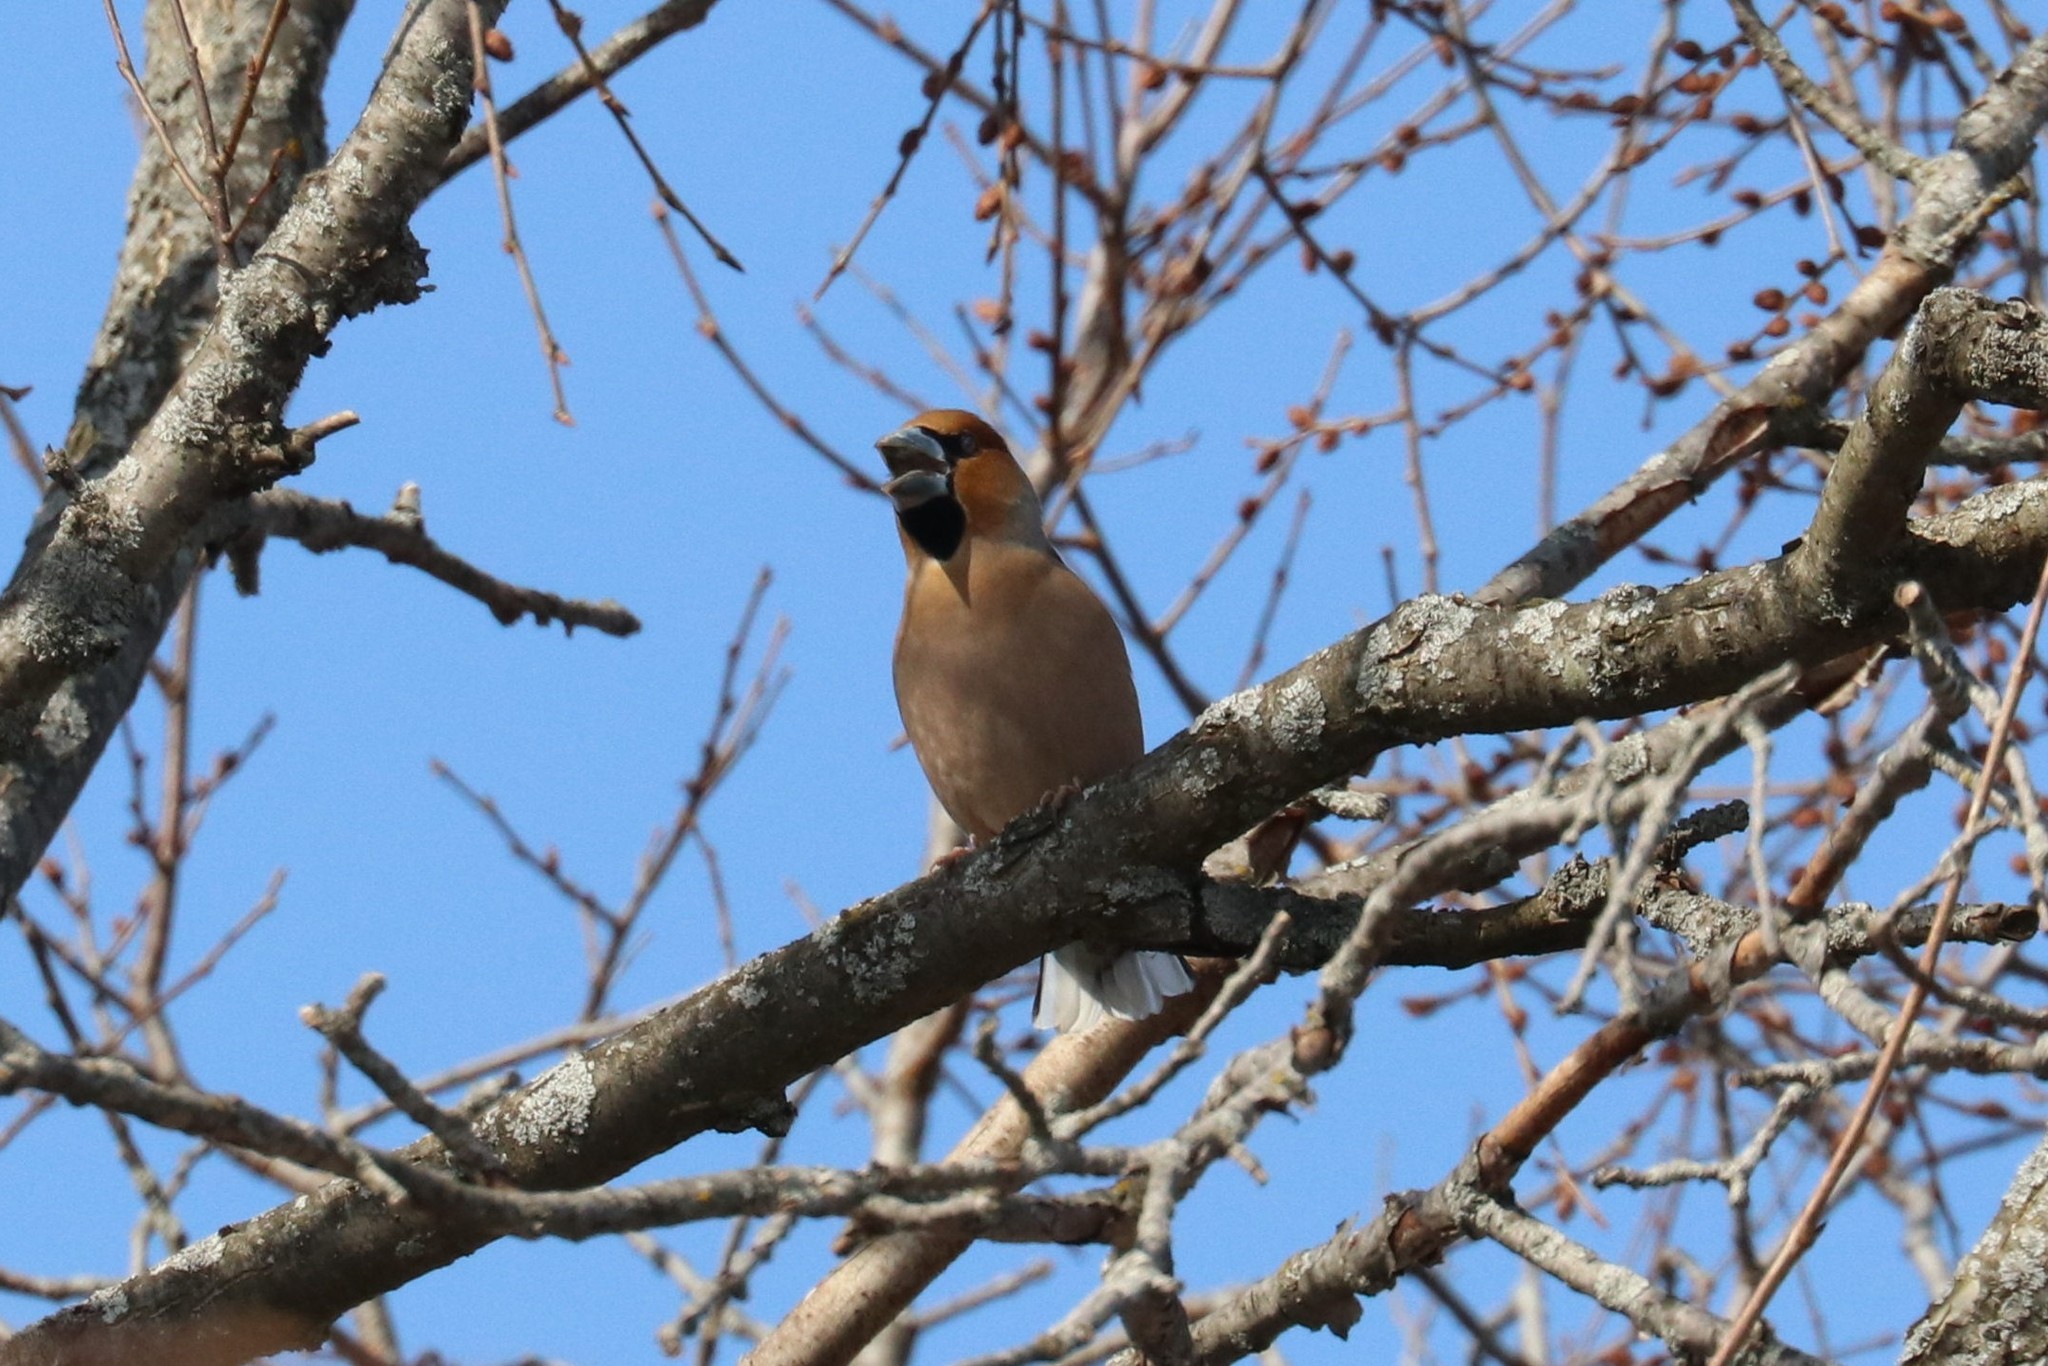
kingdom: Animalia
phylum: Chordata
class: Aves
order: Passeriformes
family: Fringillidae
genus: Coccothraustes
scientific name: Coccothraustes coccothraustes
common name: Hawfinch
